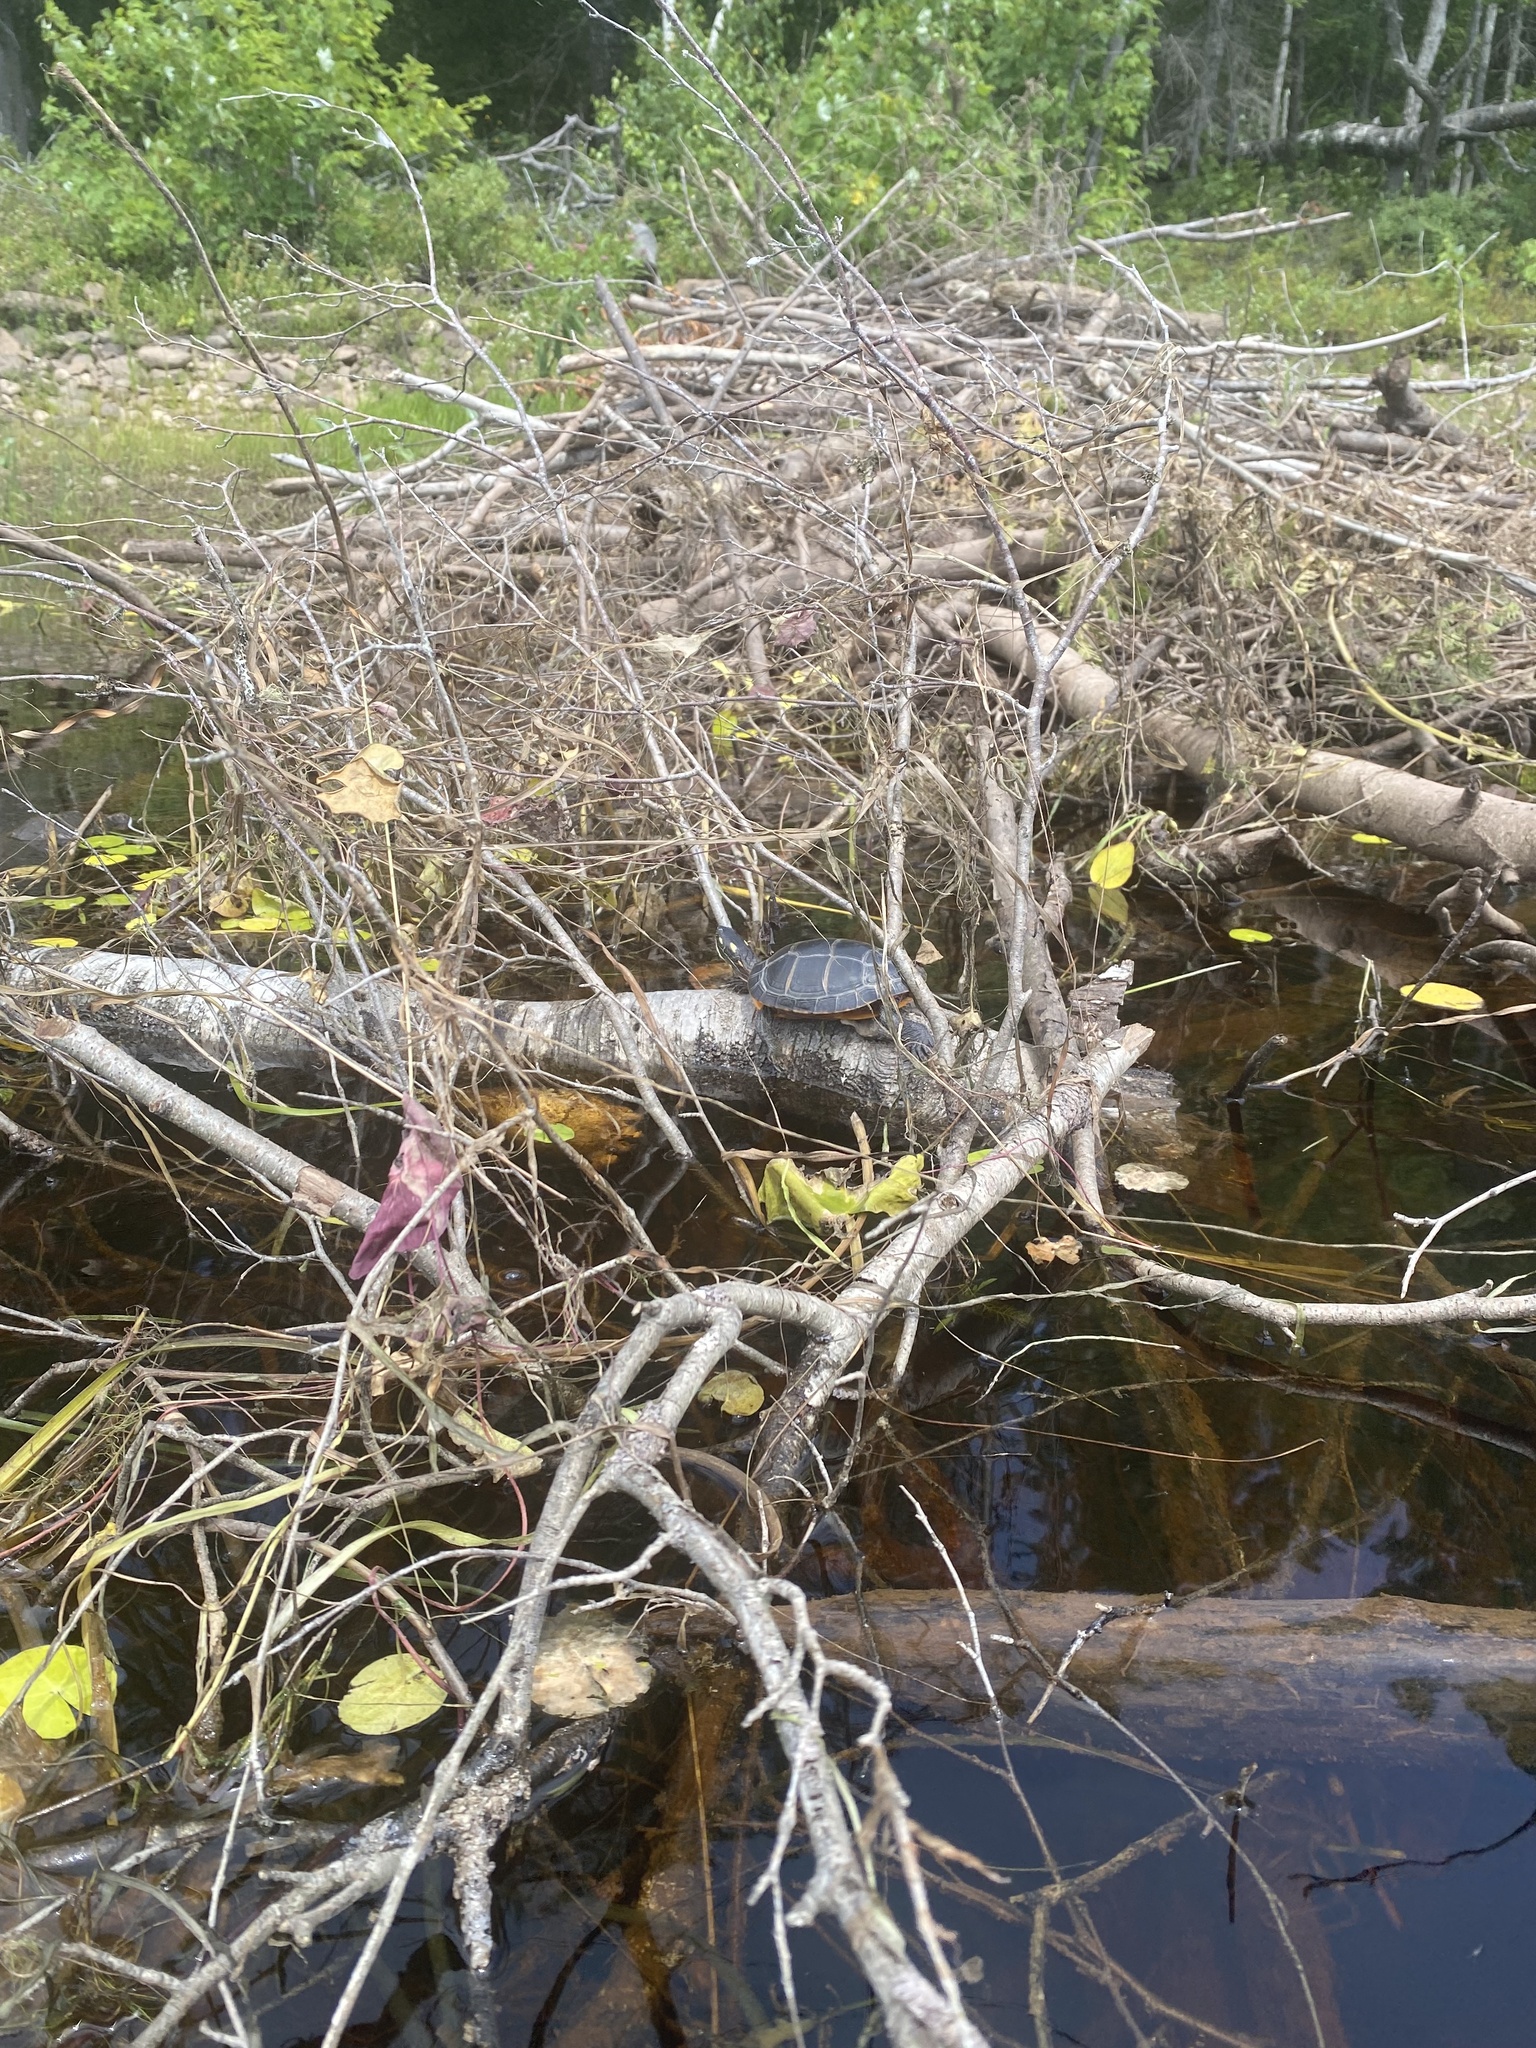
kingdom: Animalia
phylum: Chordata
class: Testudines
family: Emydidae
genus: Chrysemys
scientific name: Chrysemys picta
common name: Painted turtle
